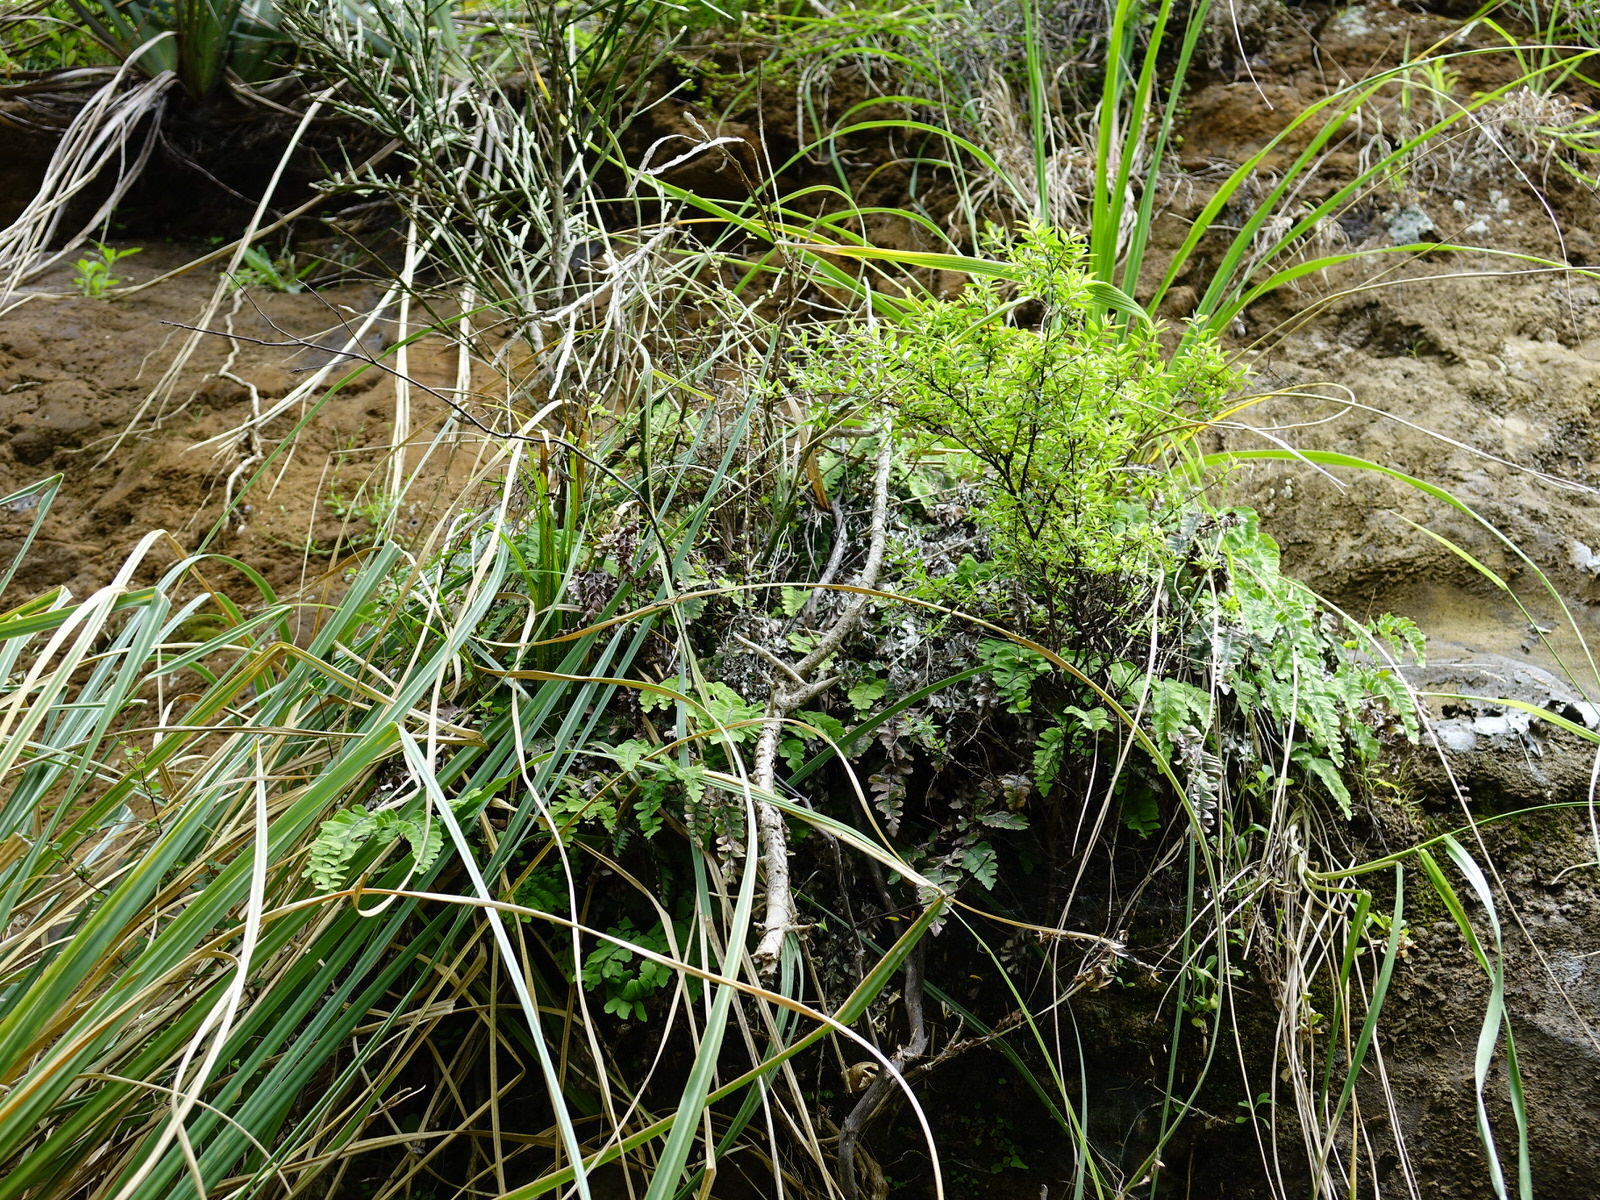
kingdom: Plantae
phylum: Tracheophyta
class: Polypodiopsida
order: Polypodiales
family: Pteridaceae
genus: Adiantum
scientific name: Adiantum cunninghamii
